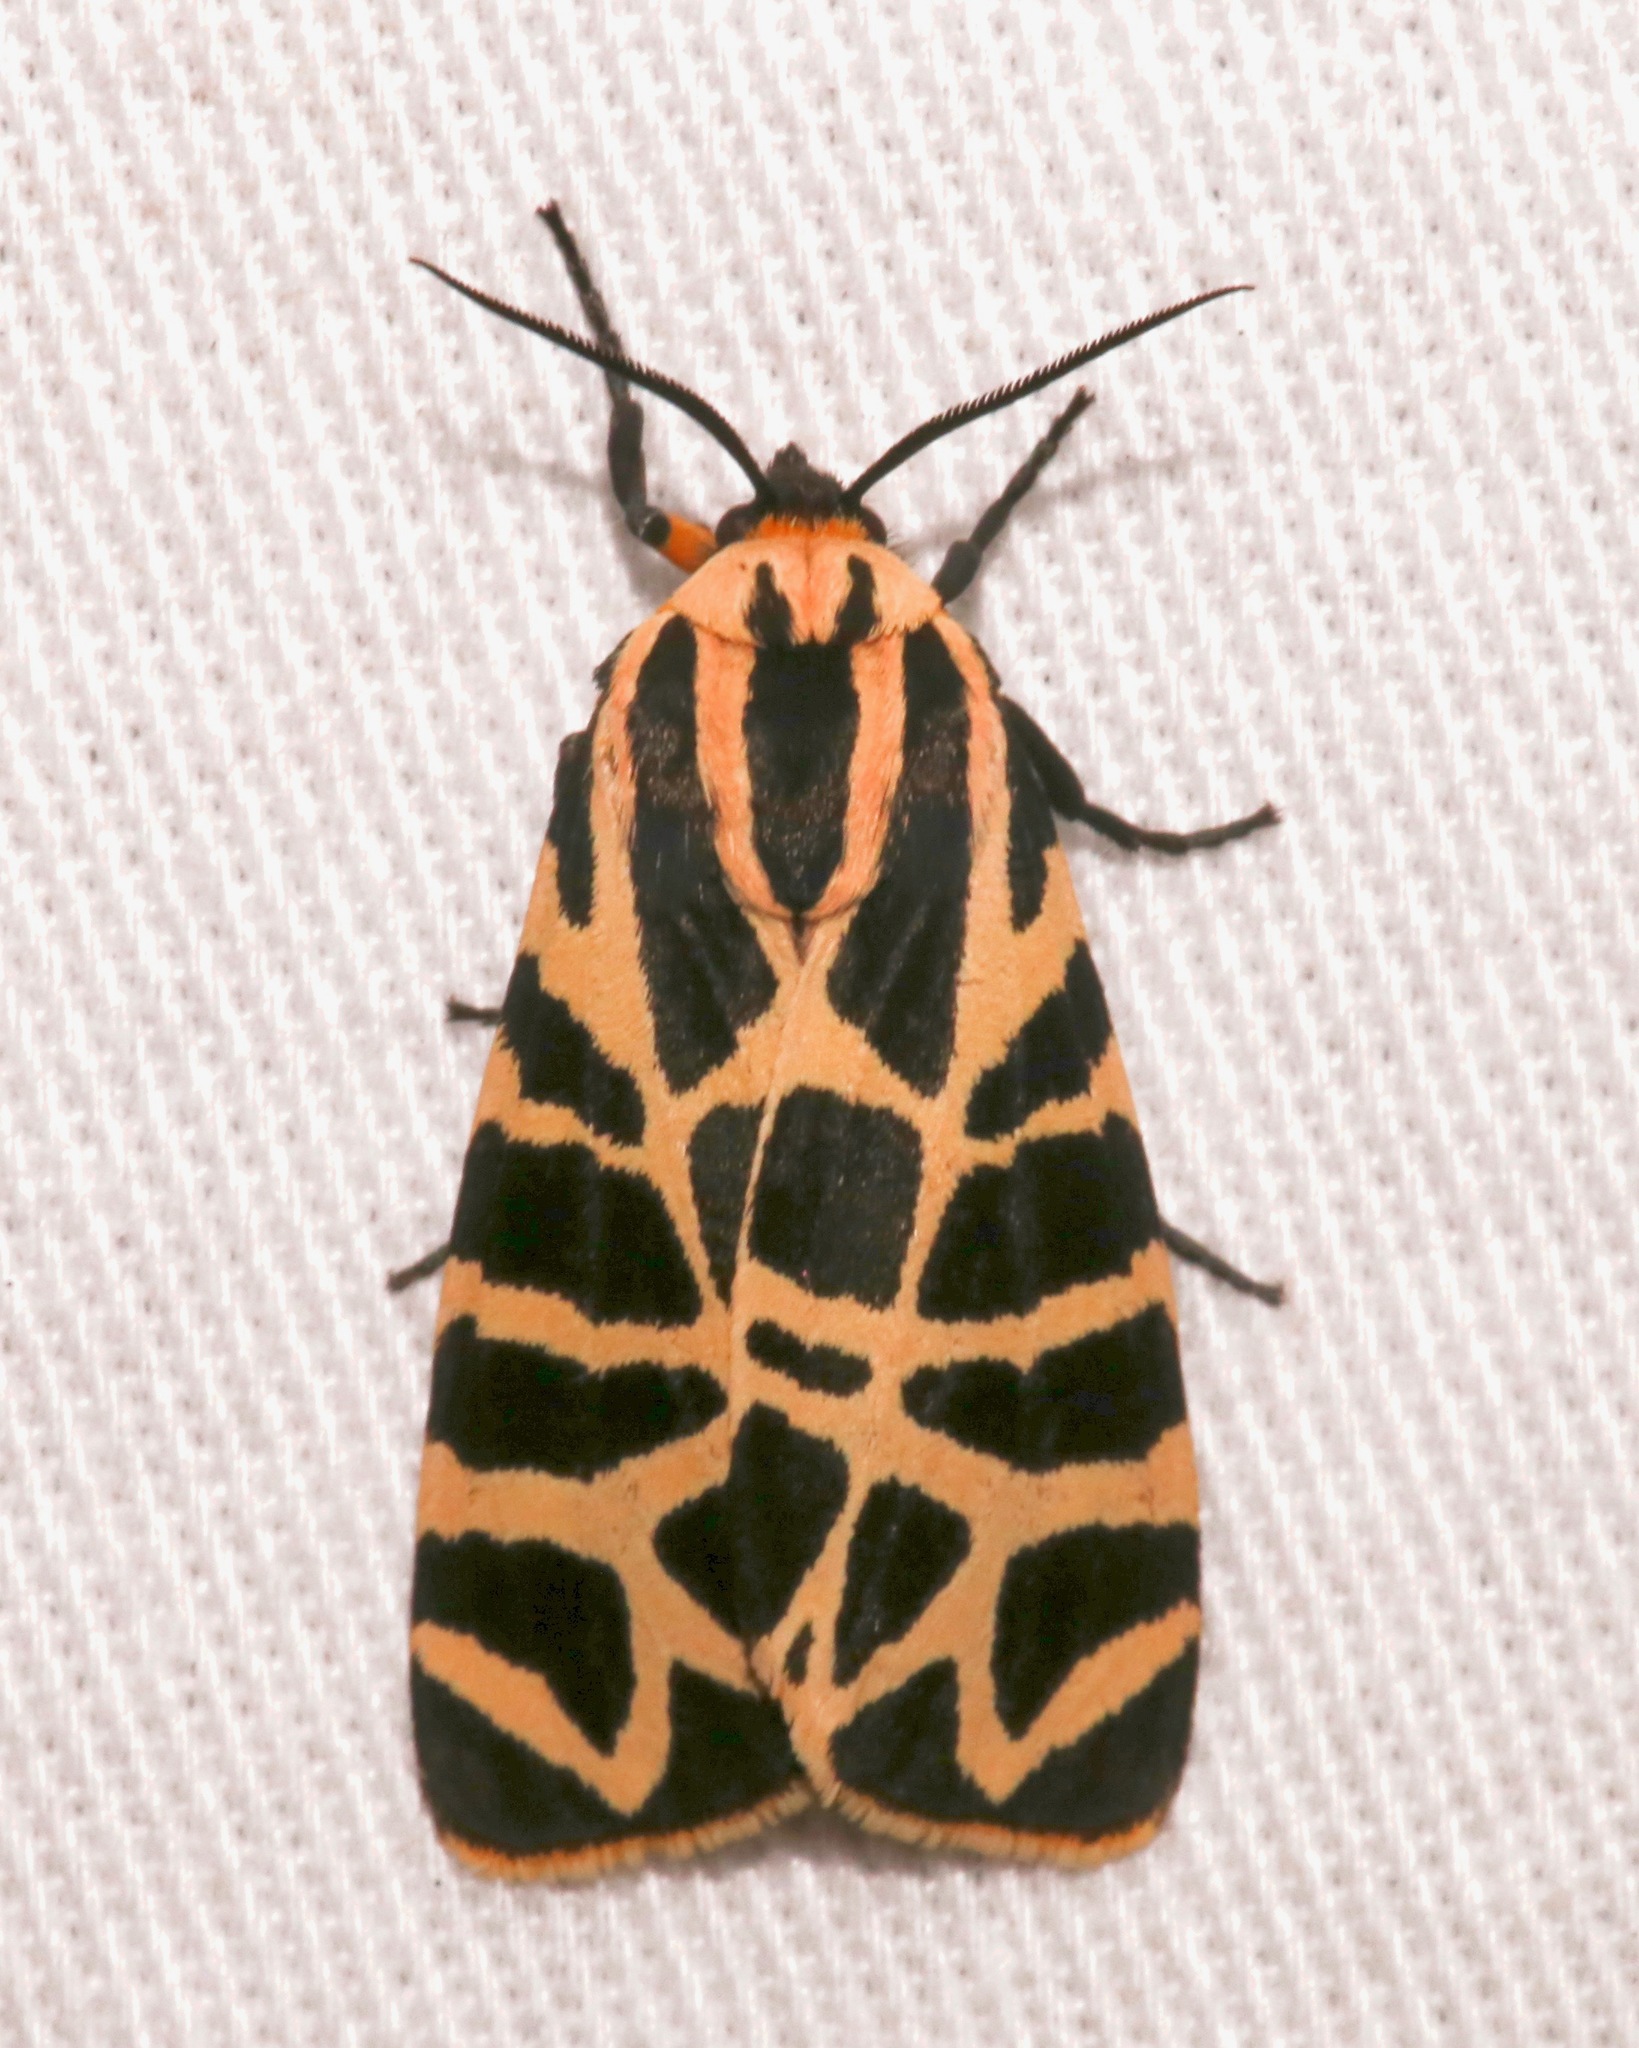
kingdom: Animalia
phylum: Arthropoda
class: Insecta
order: Lepidoptera
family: Erebidae
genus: Apantesis
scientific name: Apantesis incorrupta
